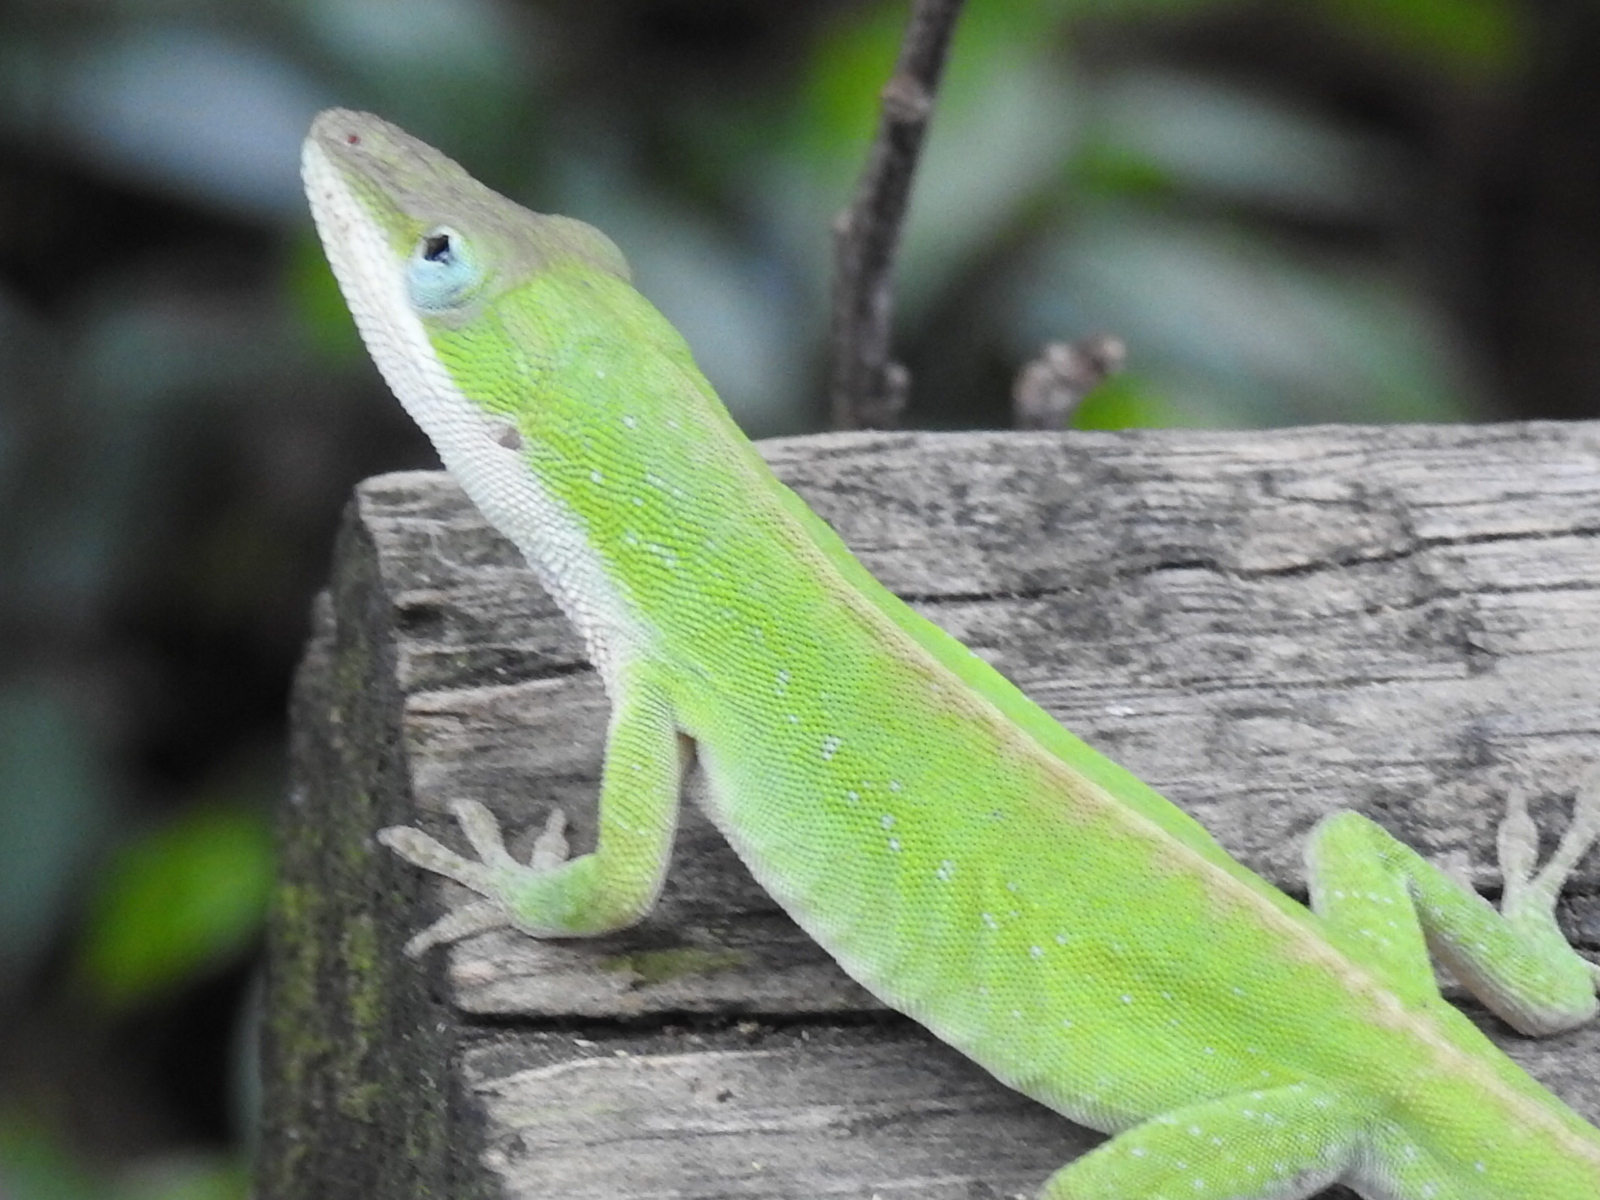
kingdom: Animalia
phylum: Chordata
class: Squamata
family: Dactyloidae
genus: Anolis
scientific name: Anolis carolinensis
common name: Green anole
